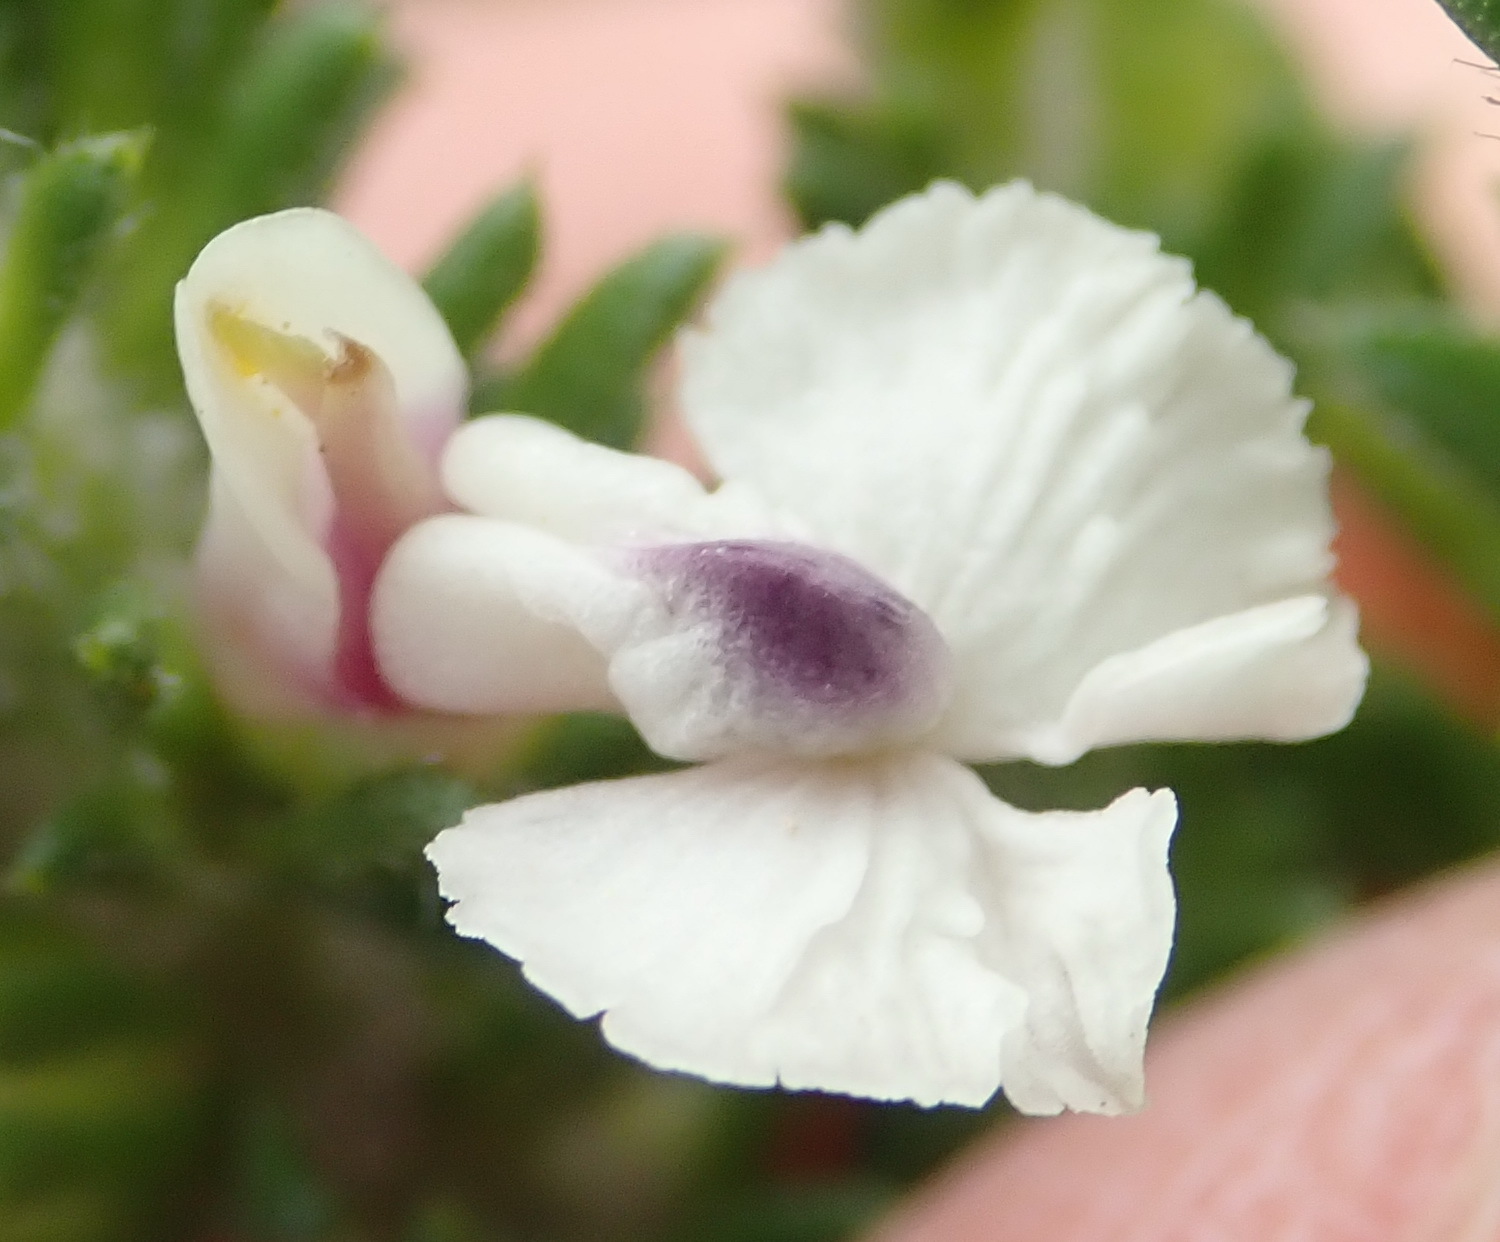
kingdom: Plantae
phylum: Tracheophyta
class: Magnoliopsida
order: Fabales
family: Polygalaceae
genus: Muraltia
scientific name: Muraltia pappeana
